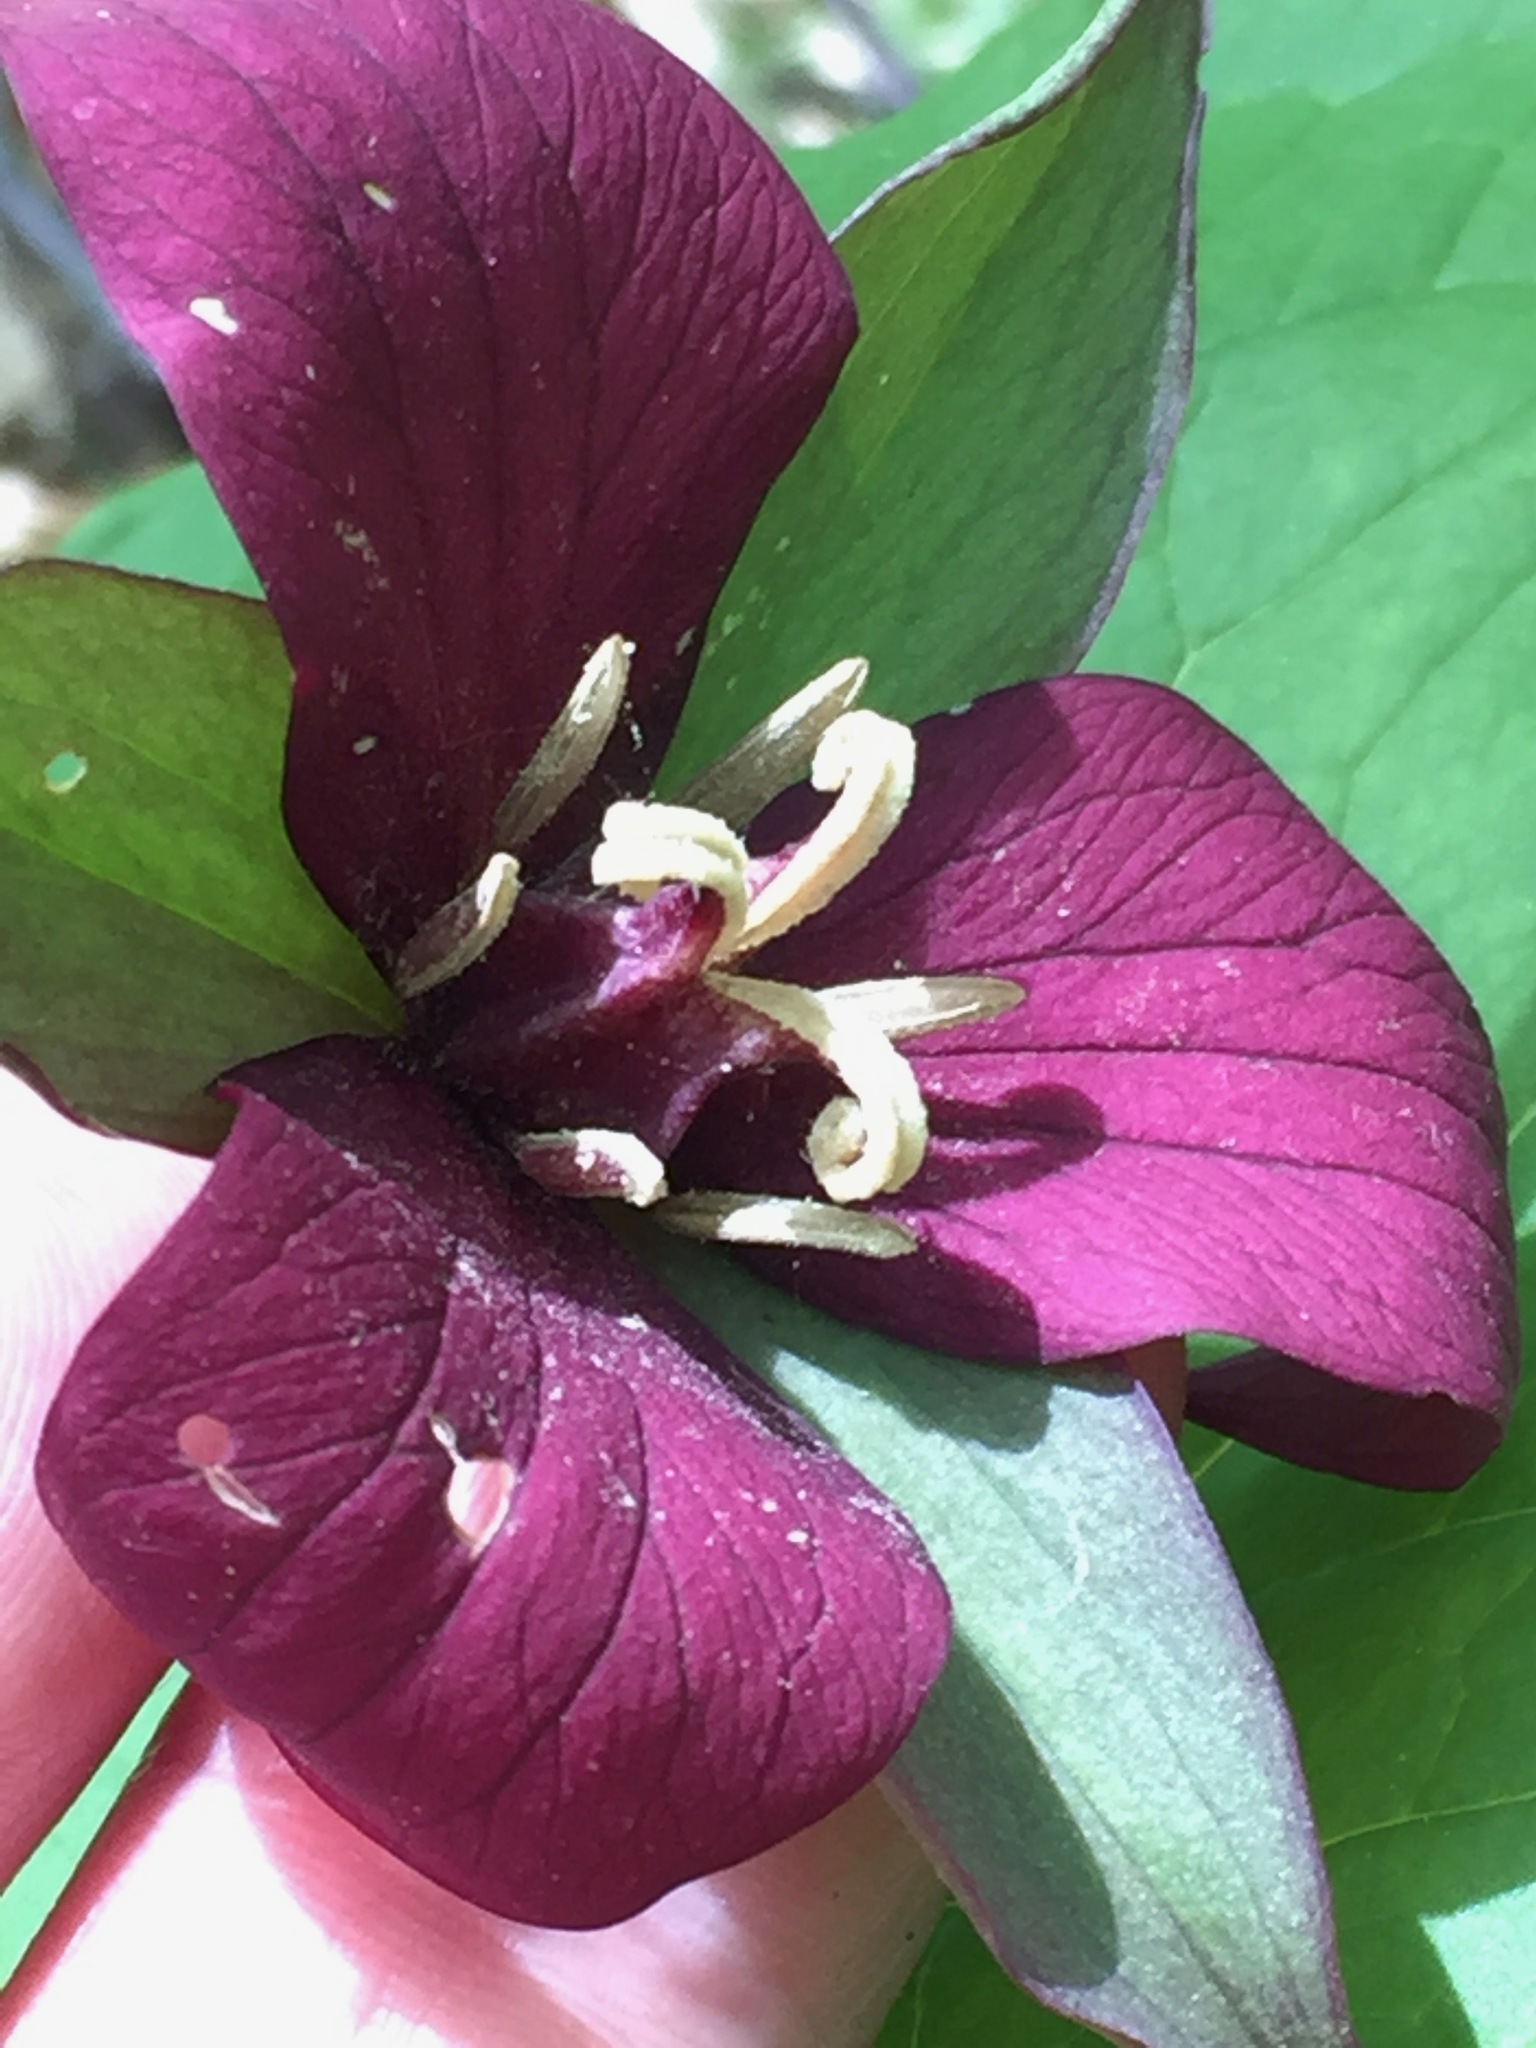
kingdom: Plantae
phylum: Tracheophyta
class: Liliopsida
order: Liliales
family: Melanthiaceae
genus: Trillium
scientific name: Trillium erectum
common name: Purple trillium
